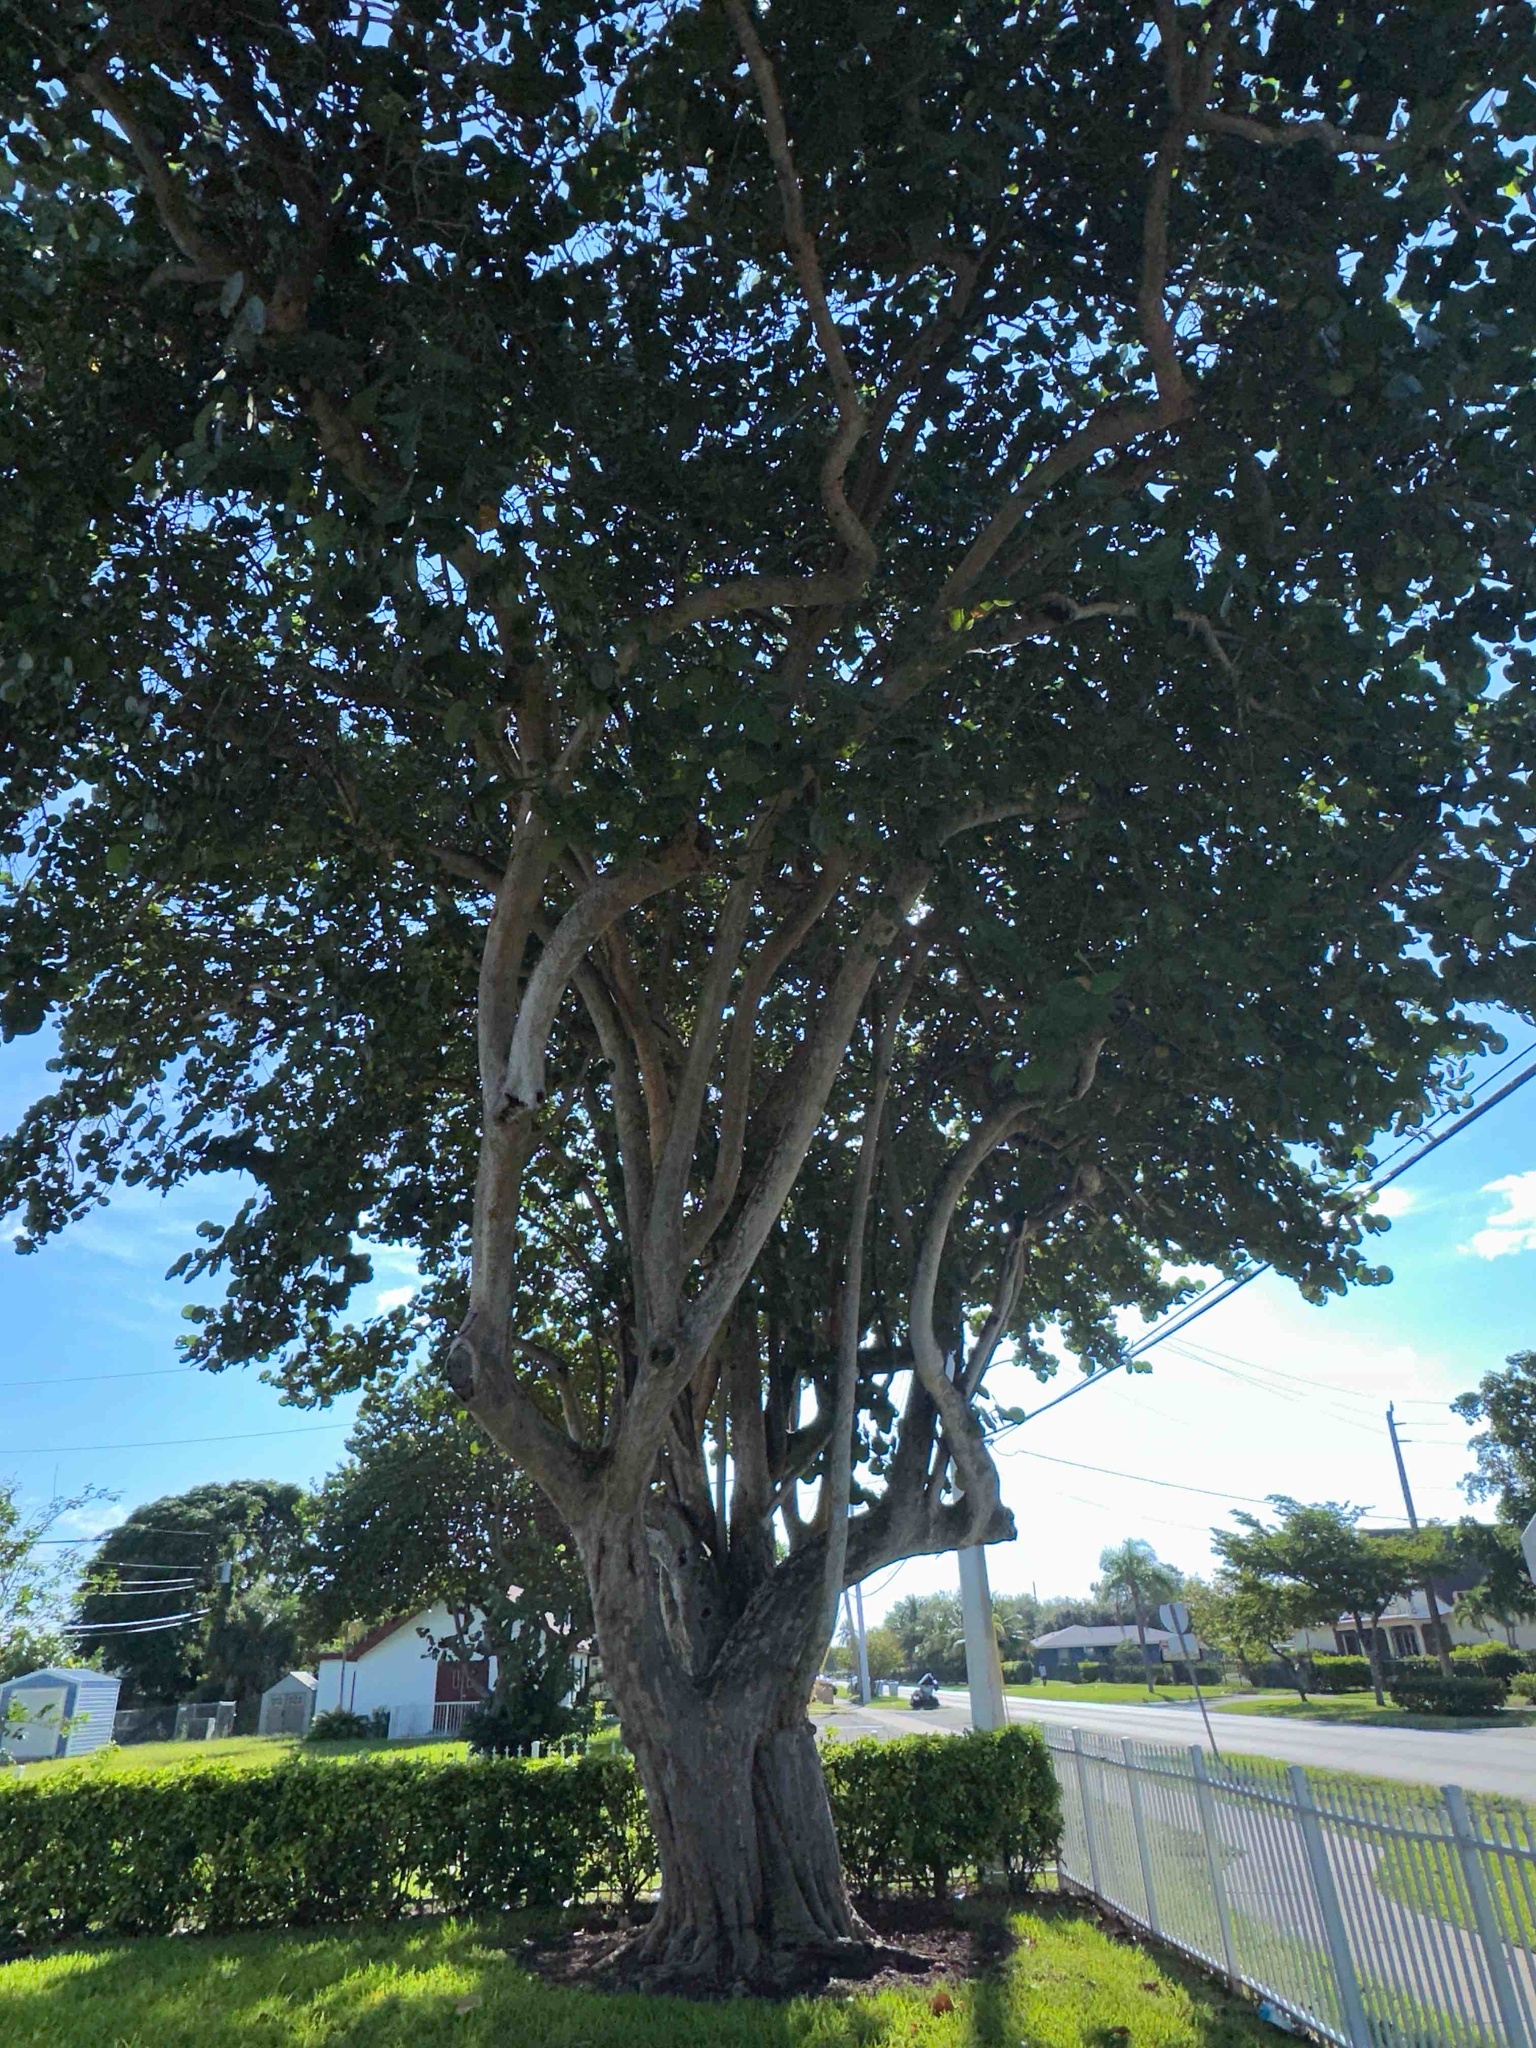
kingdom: Plantae
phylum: Tracheophyta
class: Magnoliopsida
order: Caryophyllales
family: Polygonaceae
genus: Coccoloba
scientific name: Coccoloba uvifera
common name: Seagrape
